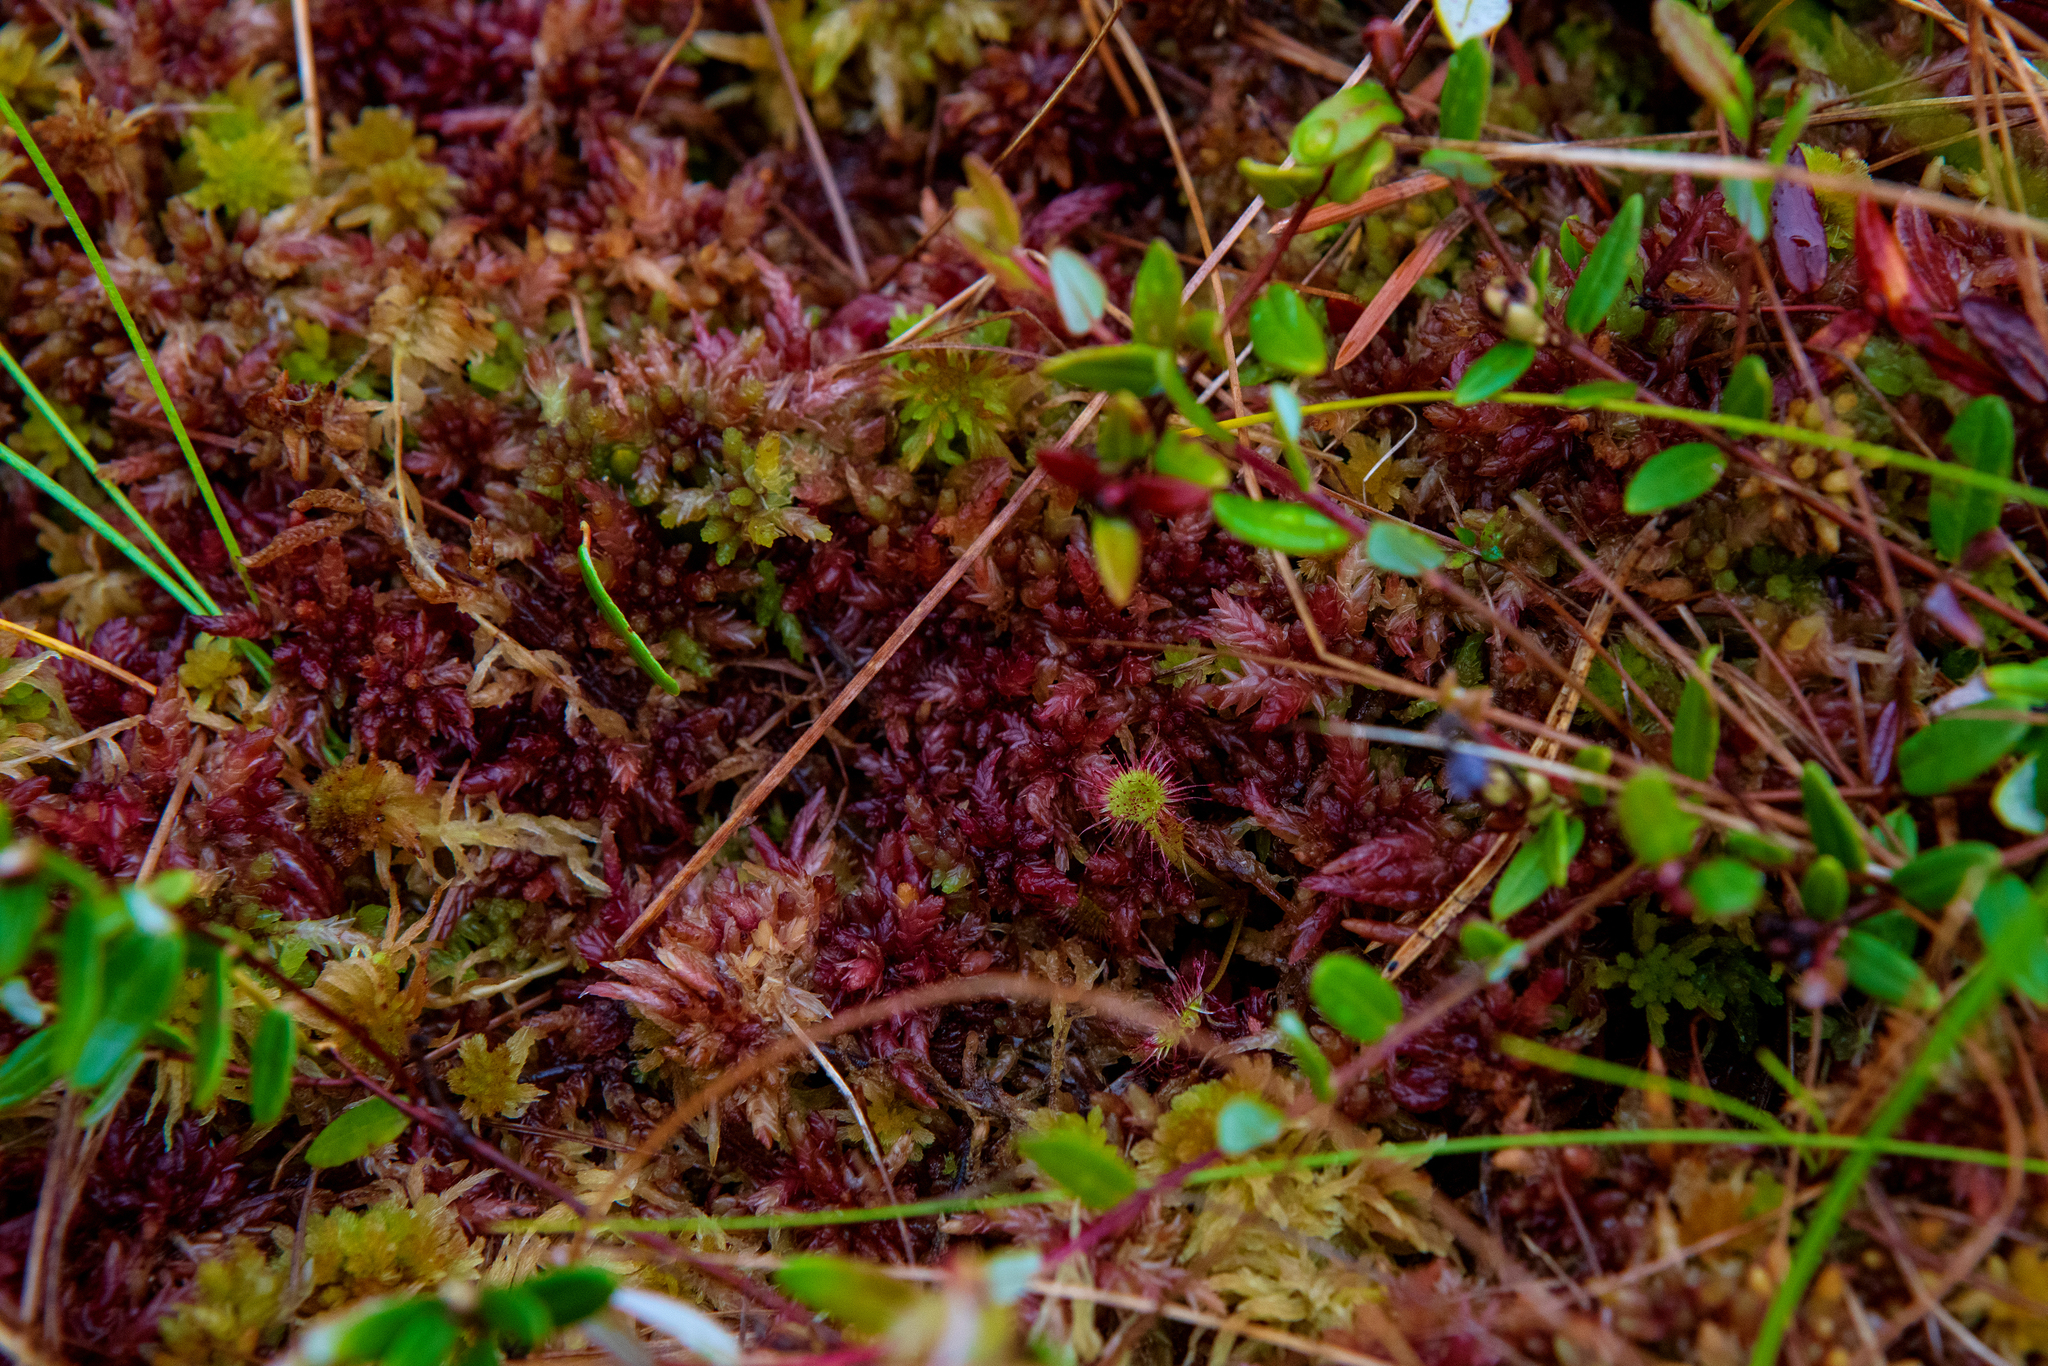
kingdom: Plantae
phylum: Bryophyta
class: Sphagnopsida
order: Sphagnales
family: Sphagnaceae
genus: Sphagnum
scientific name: Sphagnum divinum
